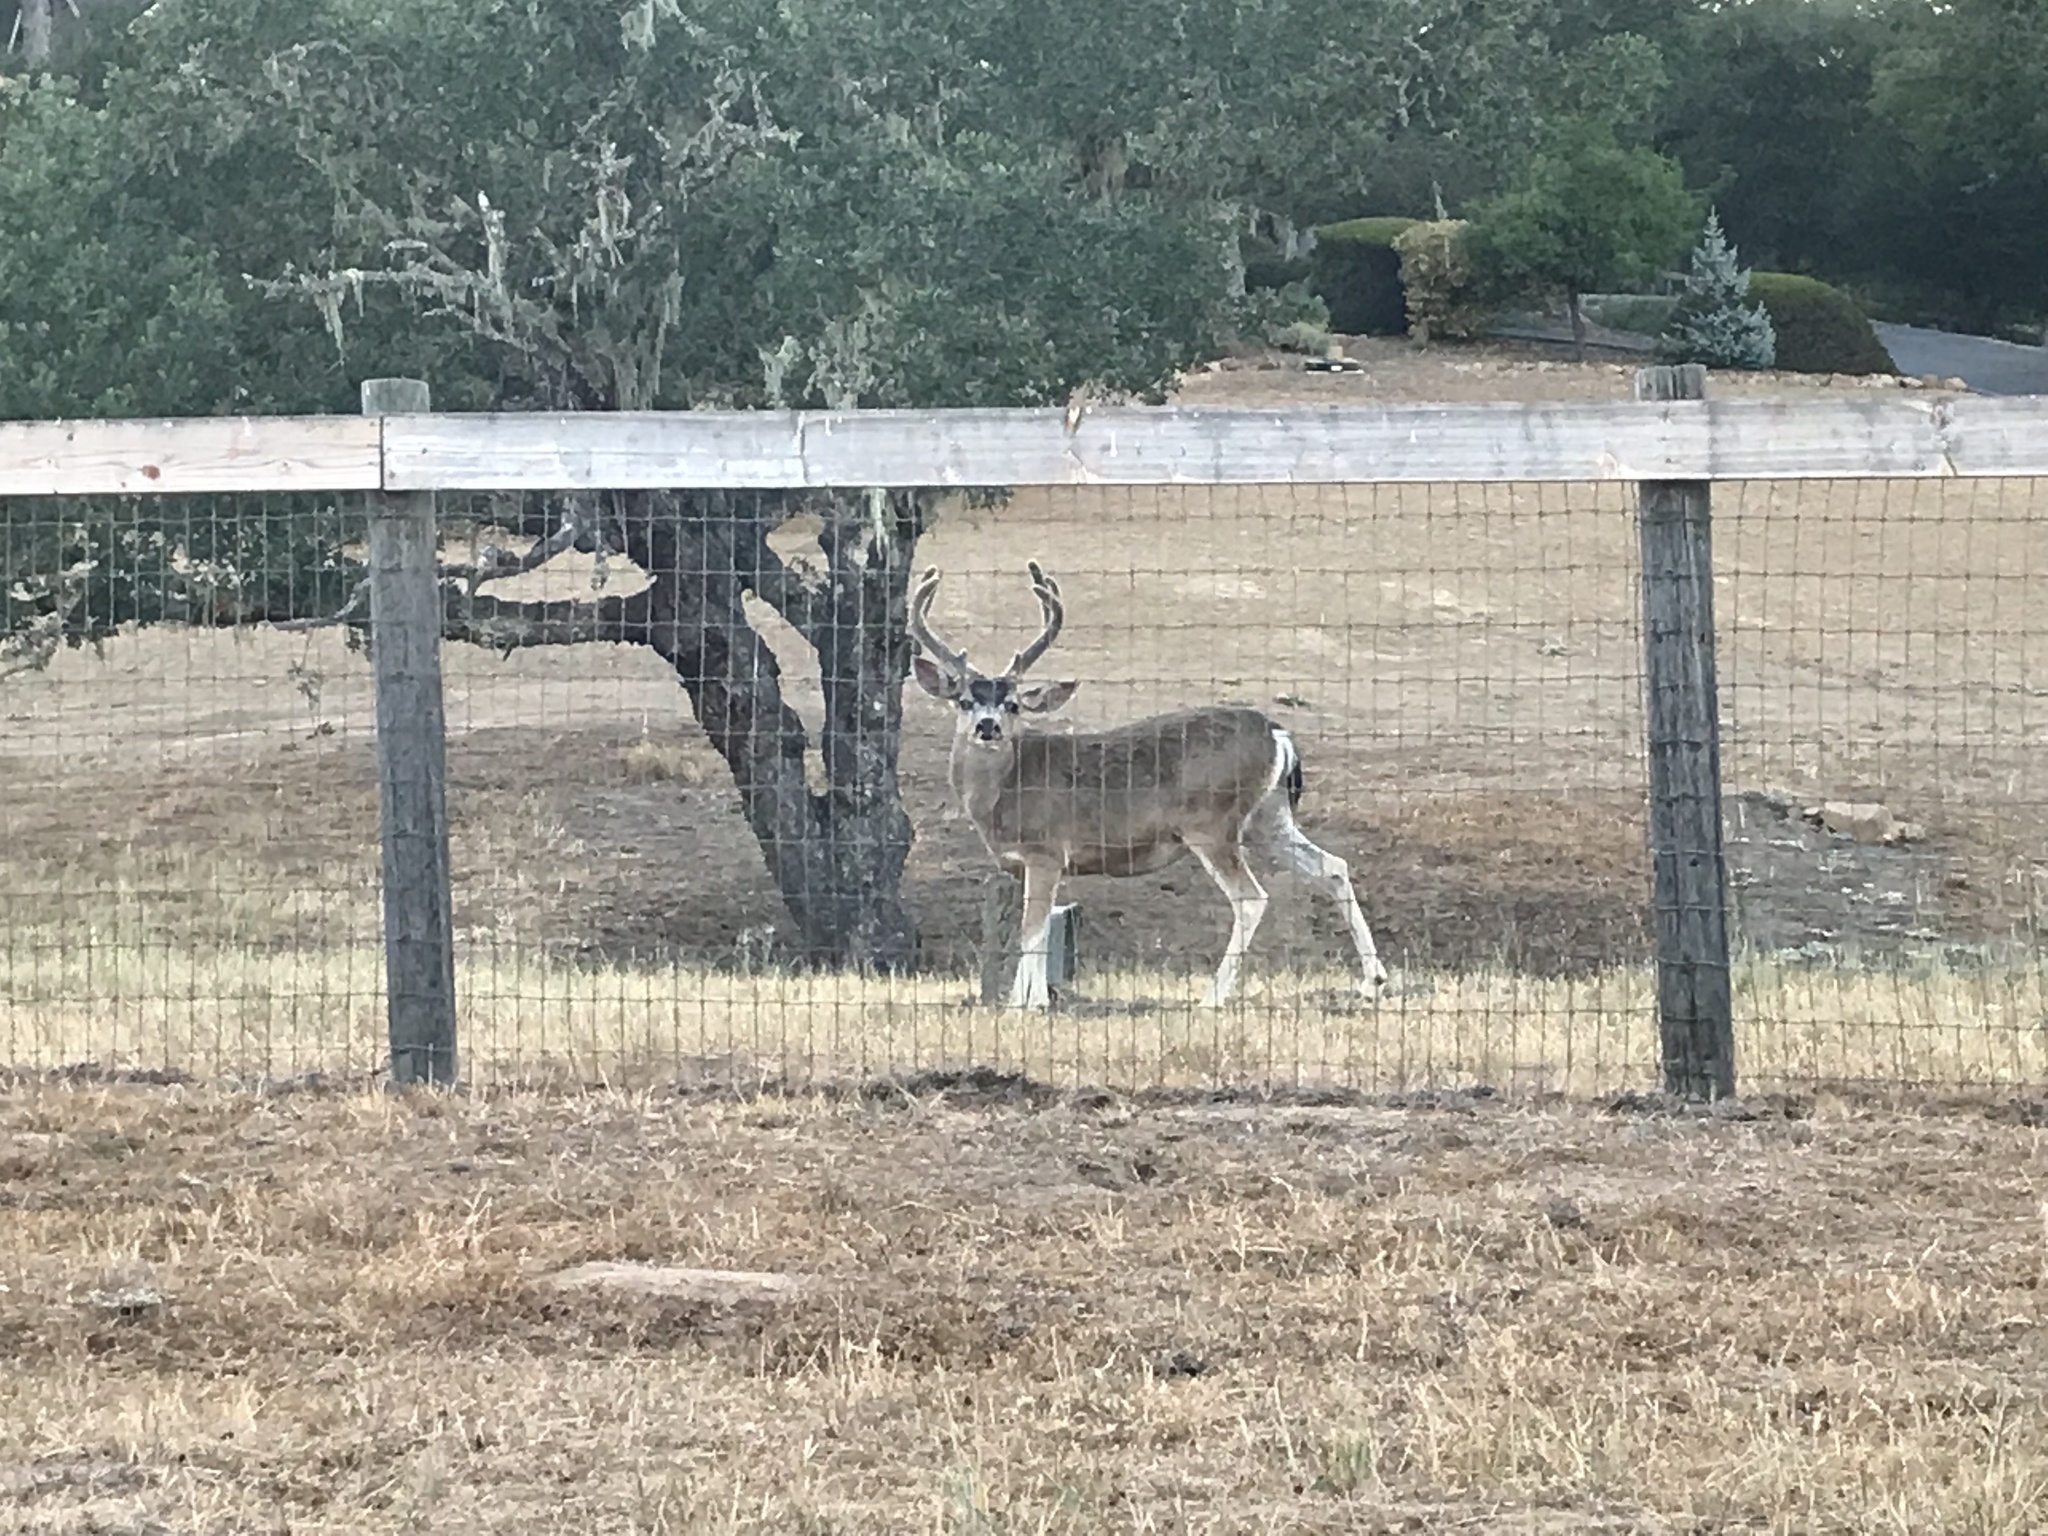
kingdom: Animalia
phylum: Chordata
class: Mammalia
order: Artiodactyla
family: Cervidae
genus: Odocoileus
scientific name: Odocoileus hemionus
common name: Mule deer
